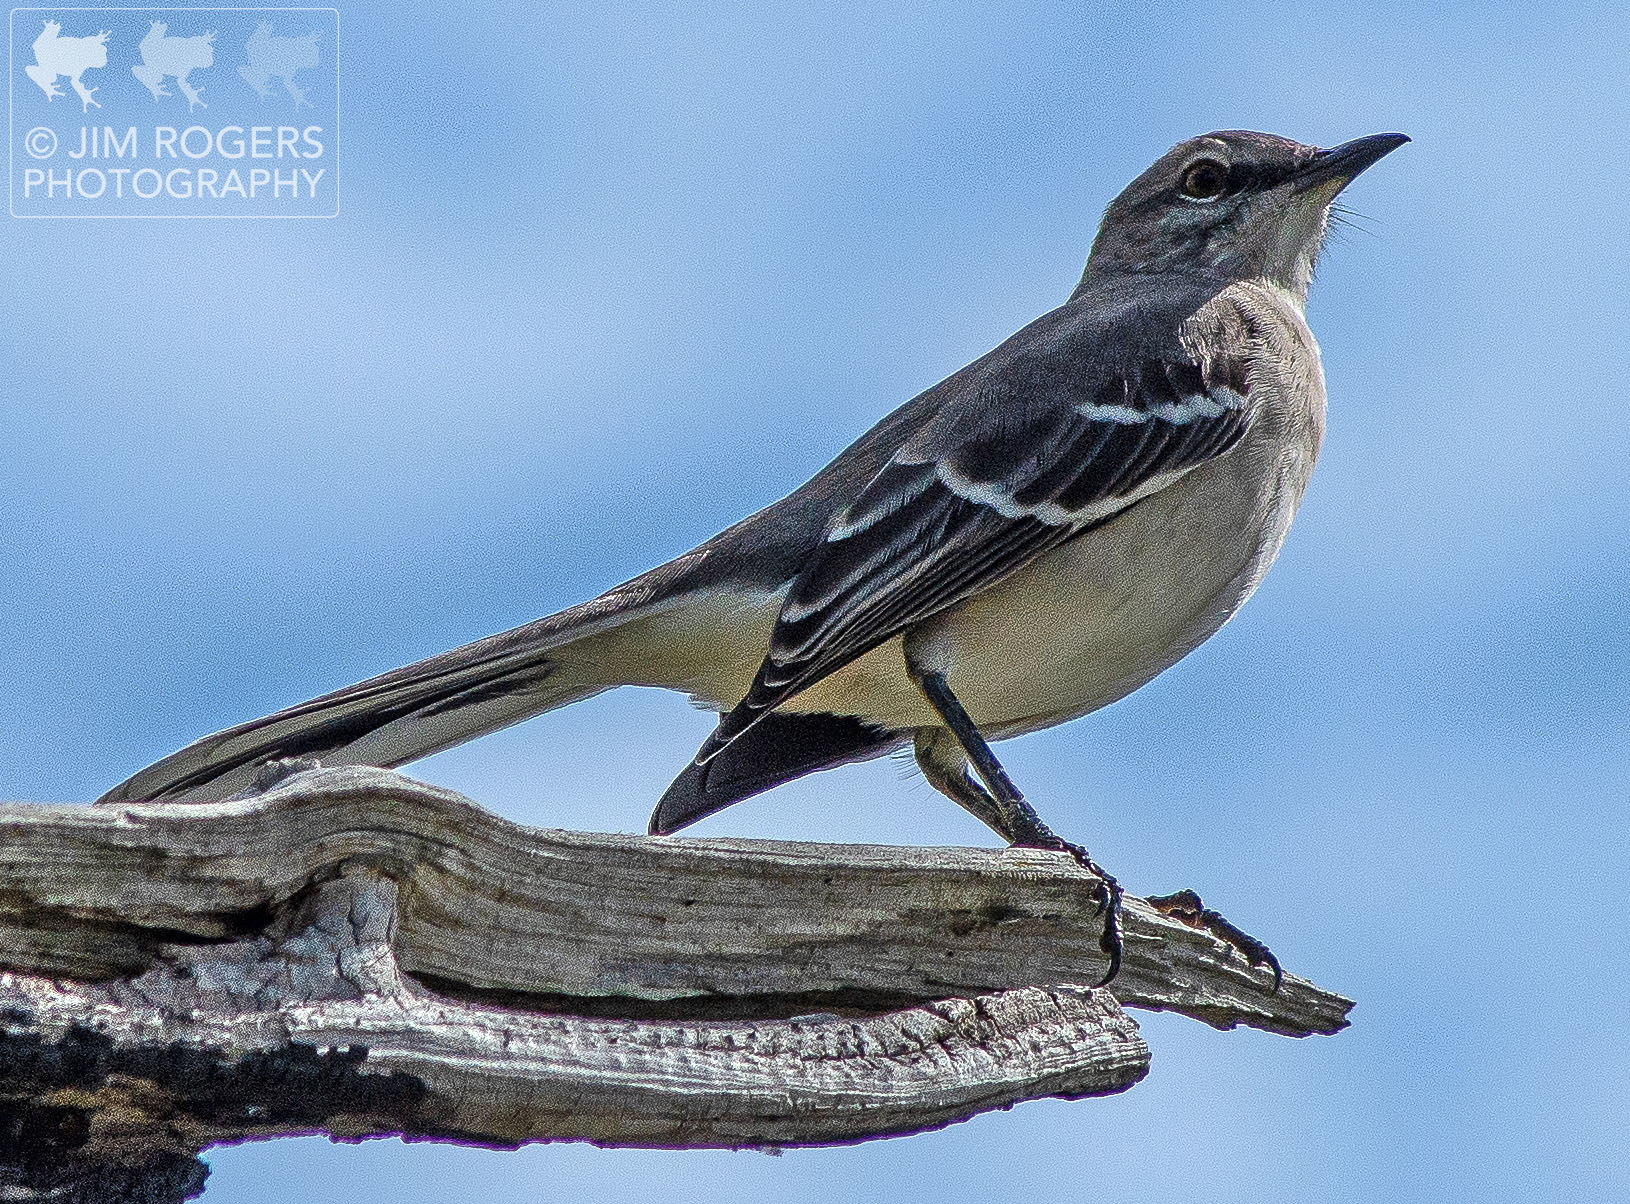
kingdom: Animalia
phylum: Chordata
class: Aves
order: Passeriformes
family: Mimidae
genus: Mimus
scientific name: Mimus polyglottos
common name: Northern mockingbird
